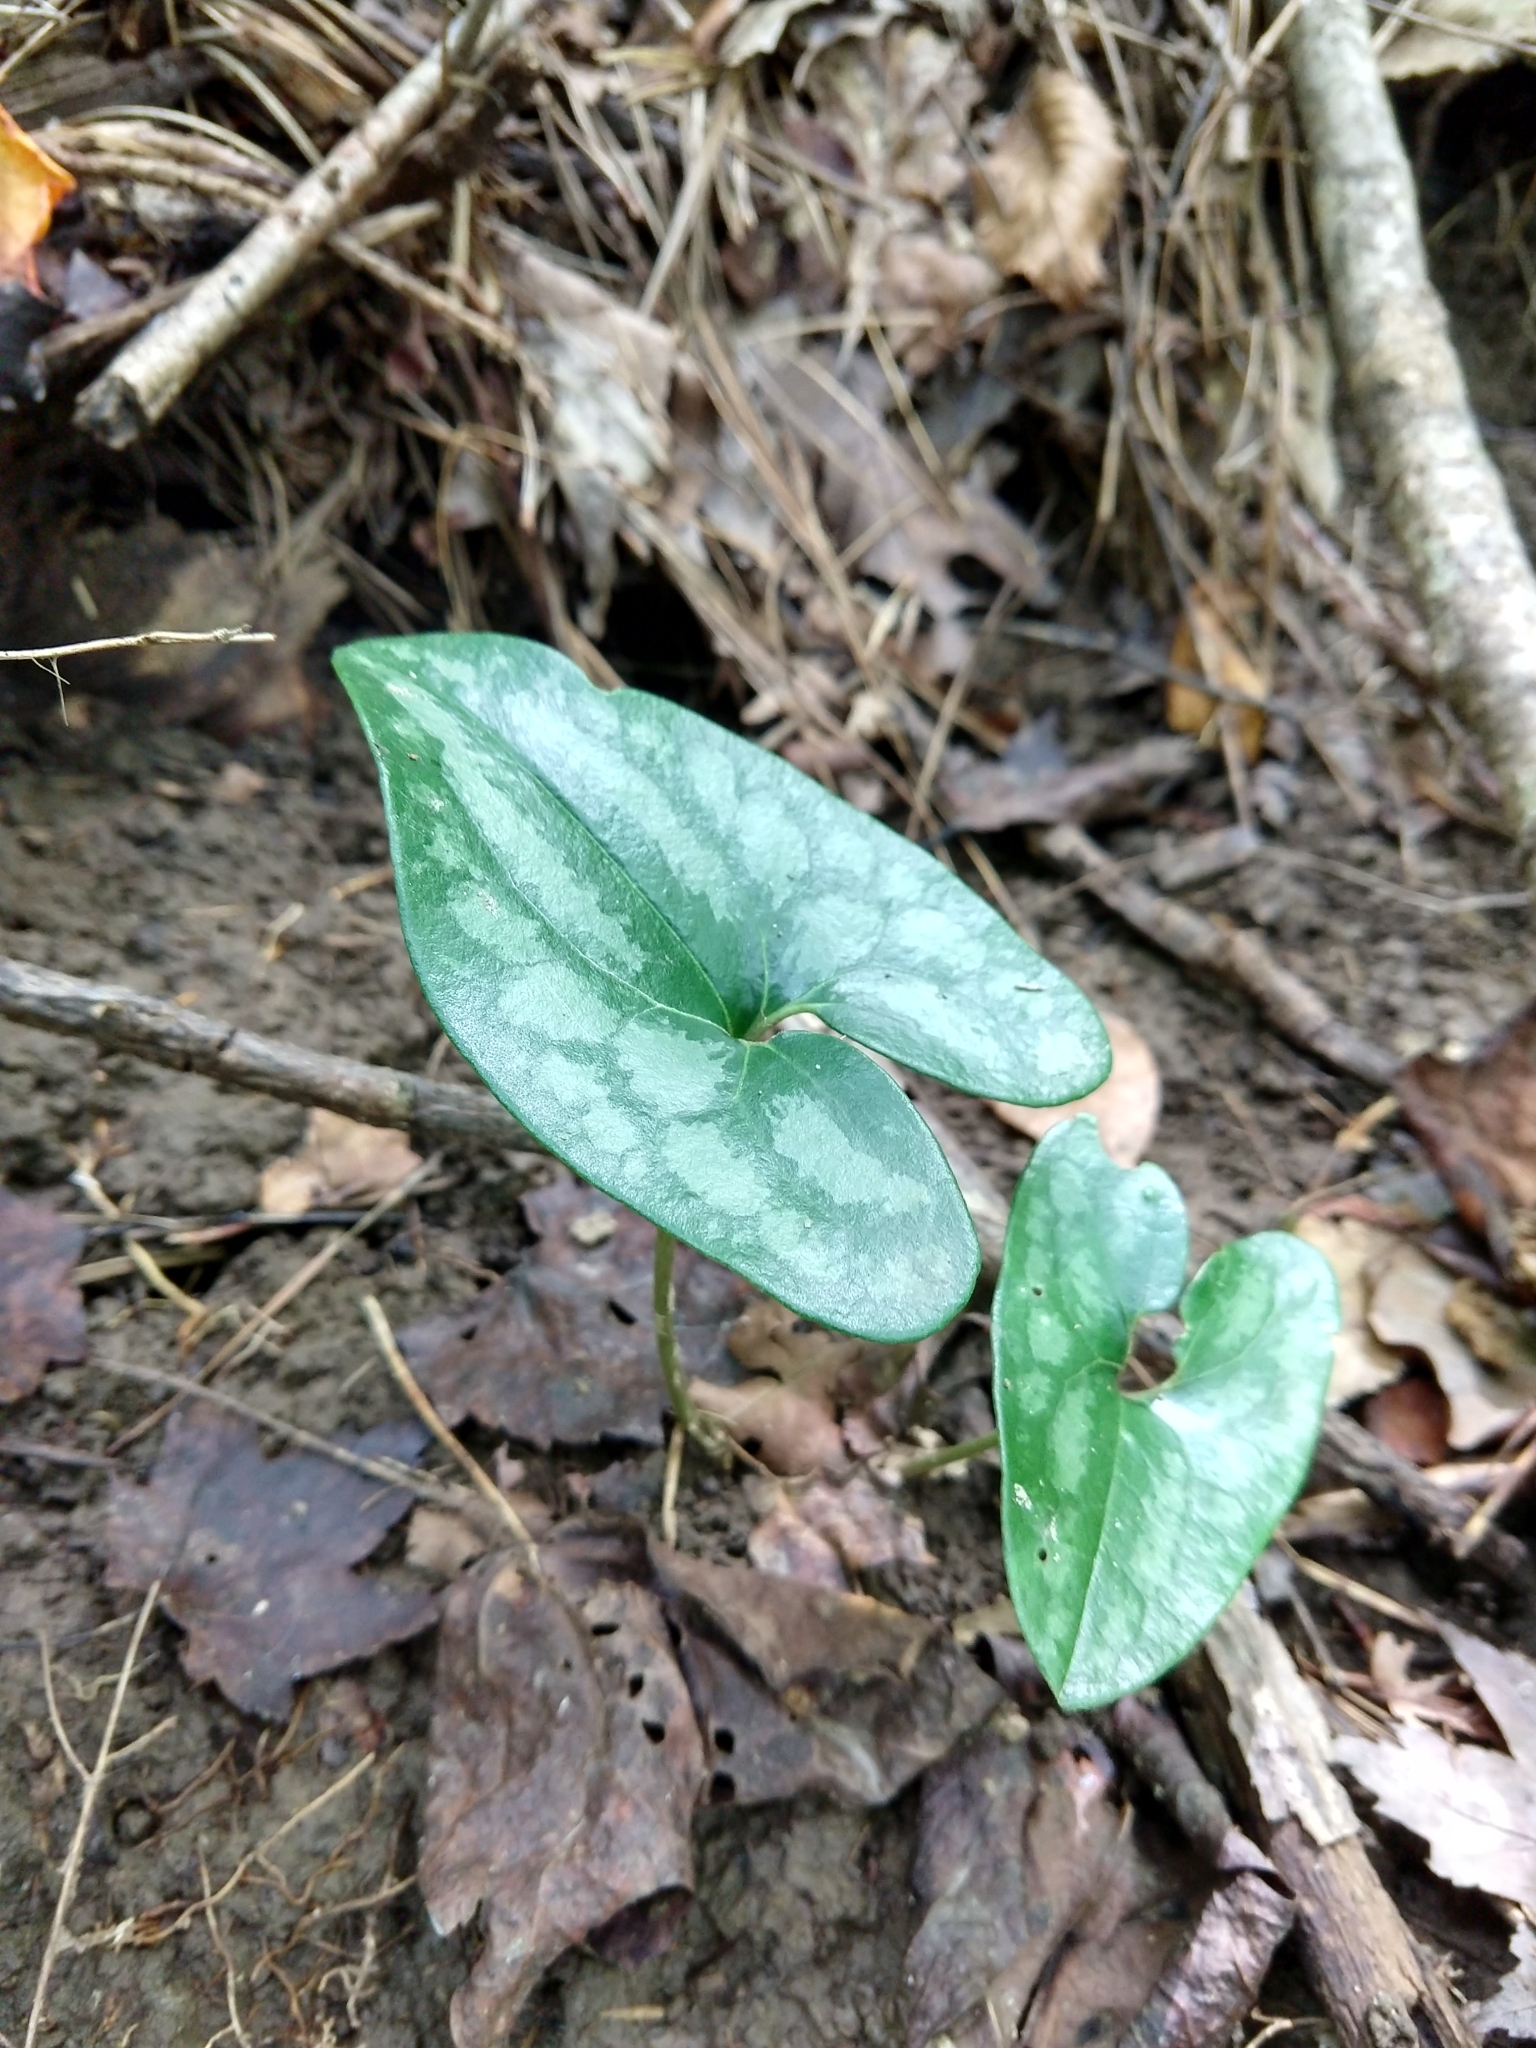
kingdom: Plantae
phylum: Tracheophyta
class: Magnoliopsida
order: Piperales
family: Aristolochiaceae
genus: Hexastylis
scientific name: Hexastylis arifolia
